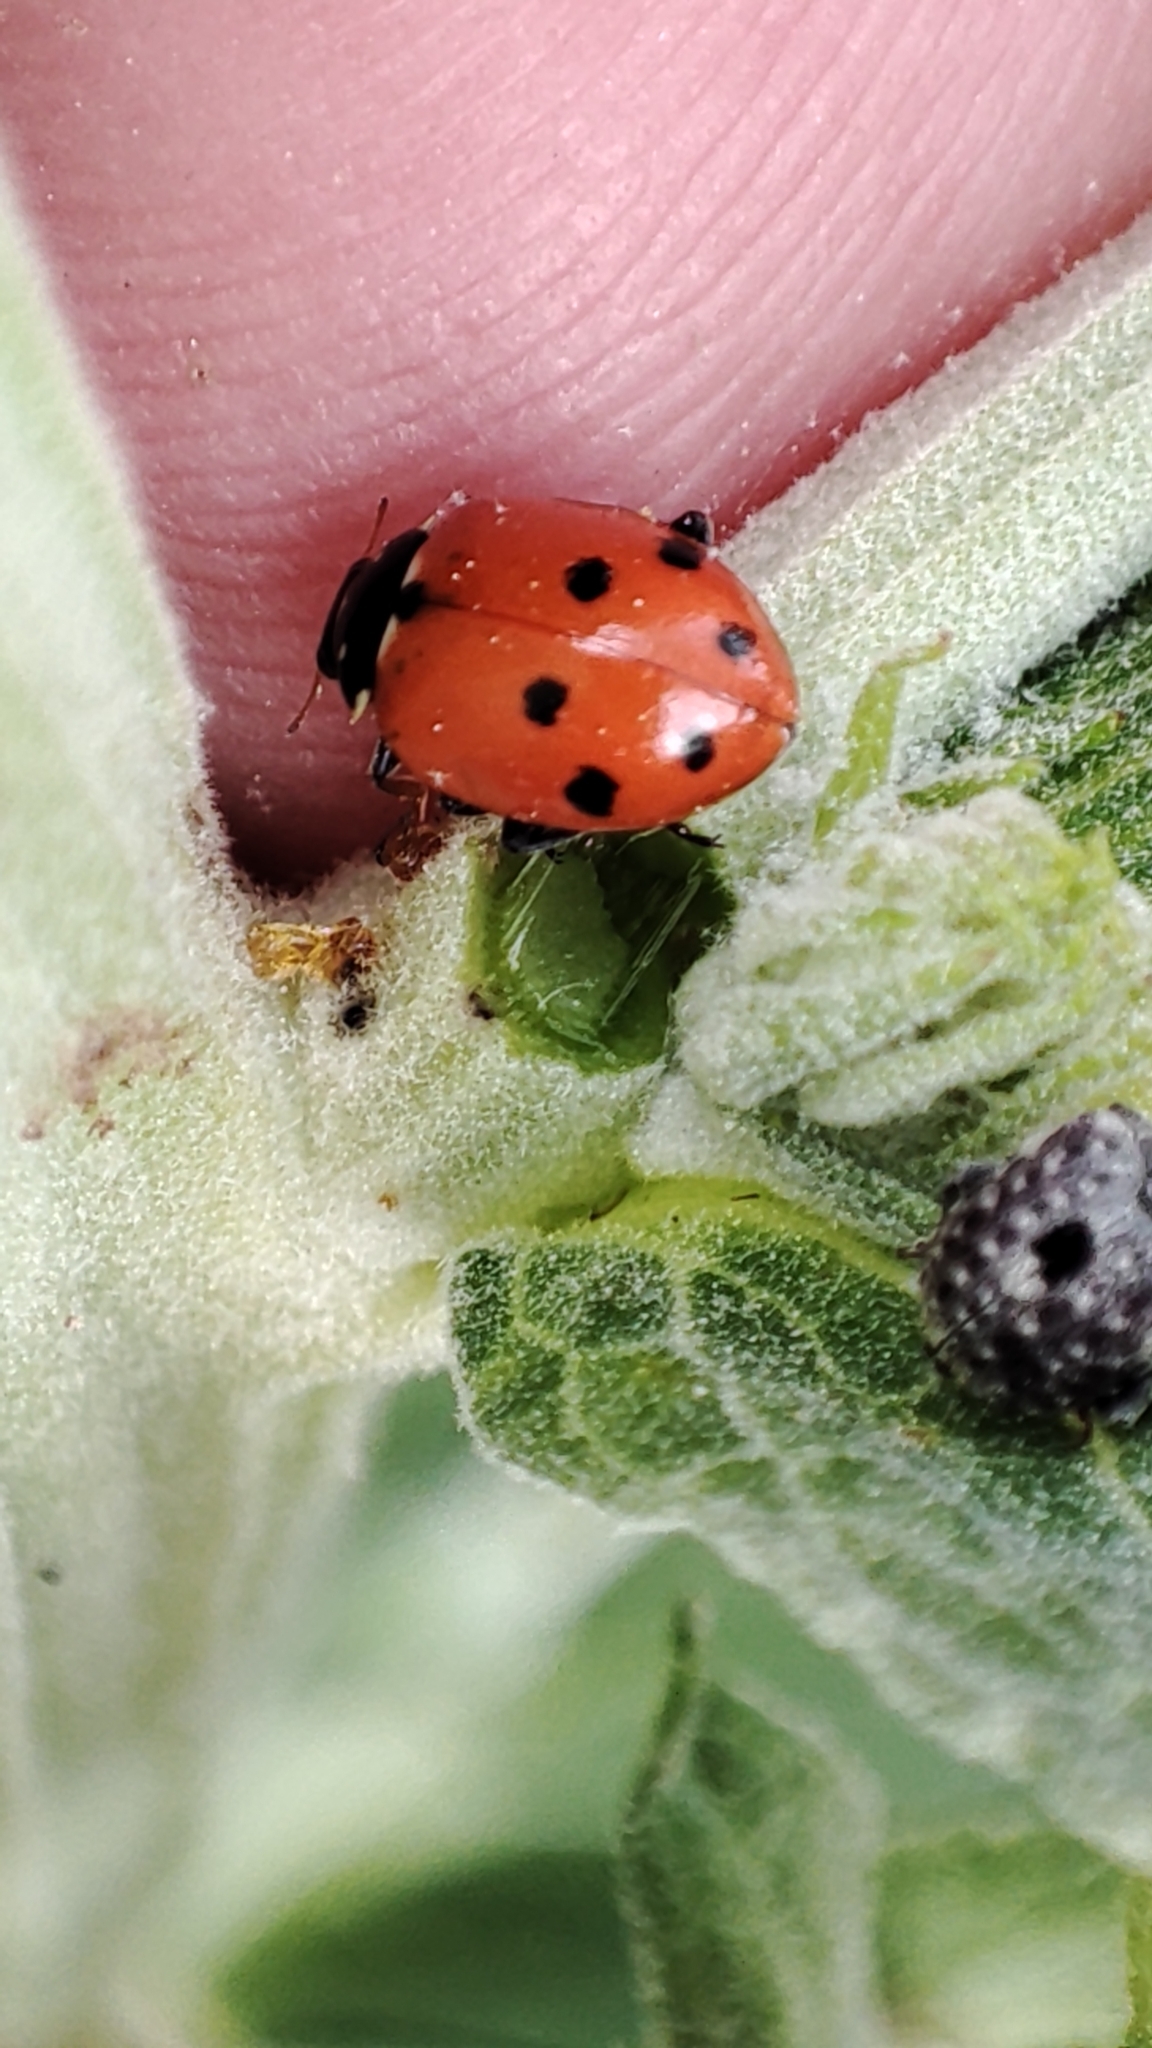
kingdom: Animalia
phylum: Arthropoda
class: Insecta
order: Coleoptera
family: Coccinellidae
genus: Hippodamia
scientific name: Hippodamia variegata
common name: Ladybird beetle
